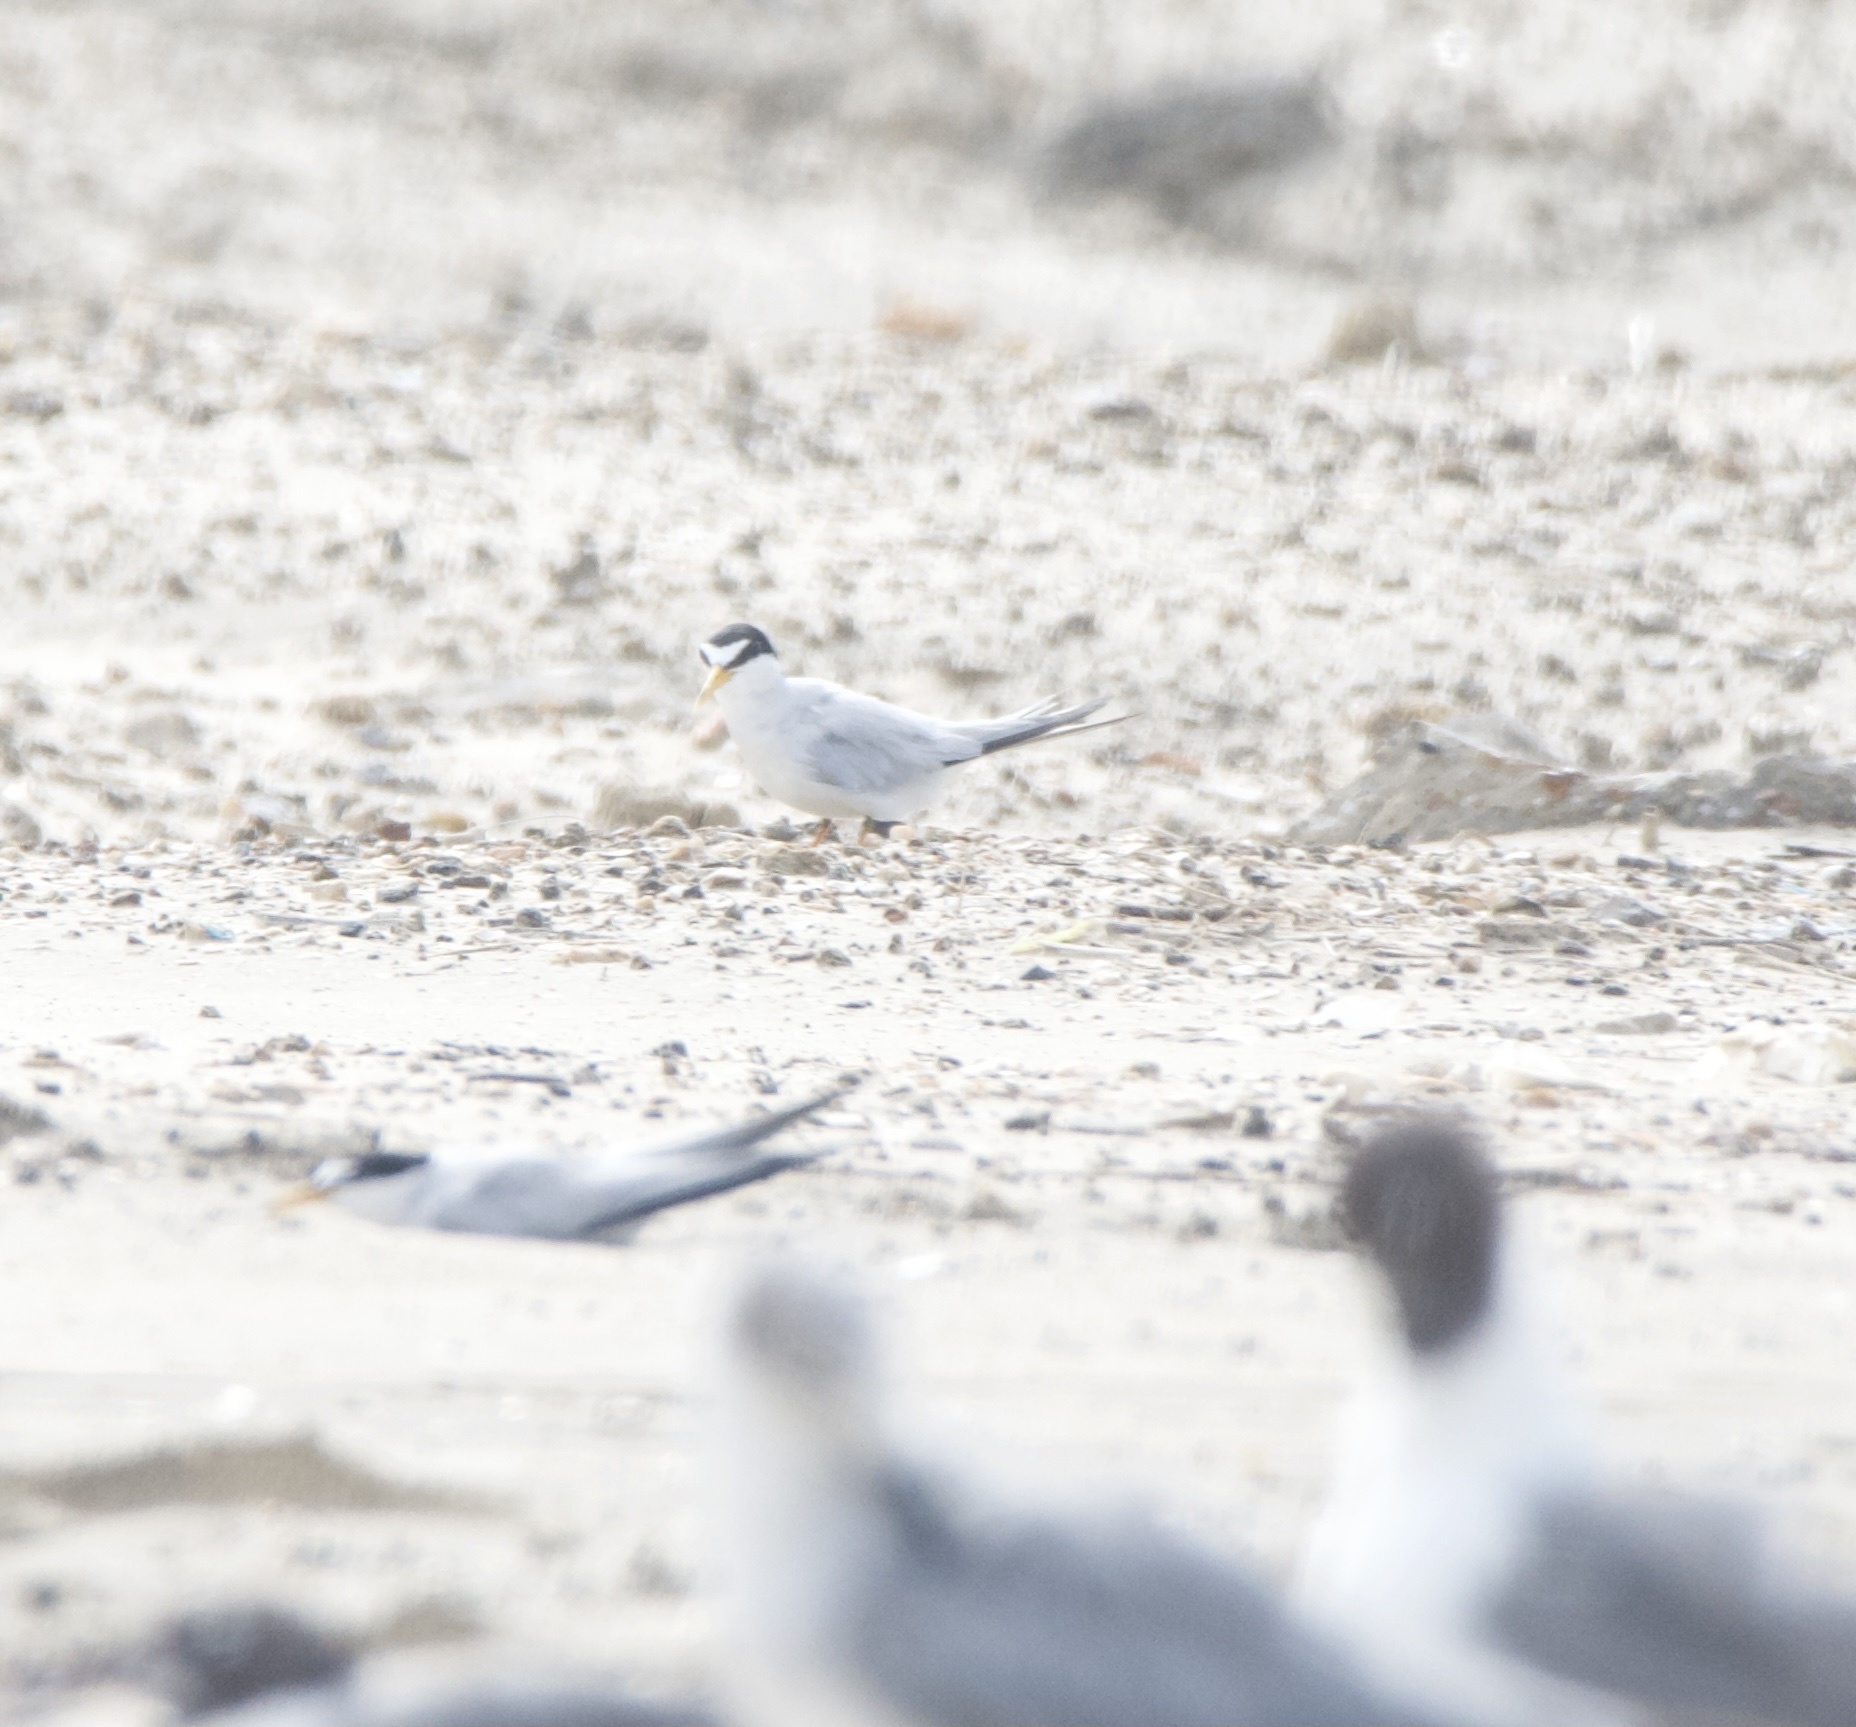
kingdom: Animalia
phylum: Chordata
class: Aves
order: Charadriiformes
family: Laridae
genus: Sternula
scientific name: Sternula antillarum
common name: Least tern
